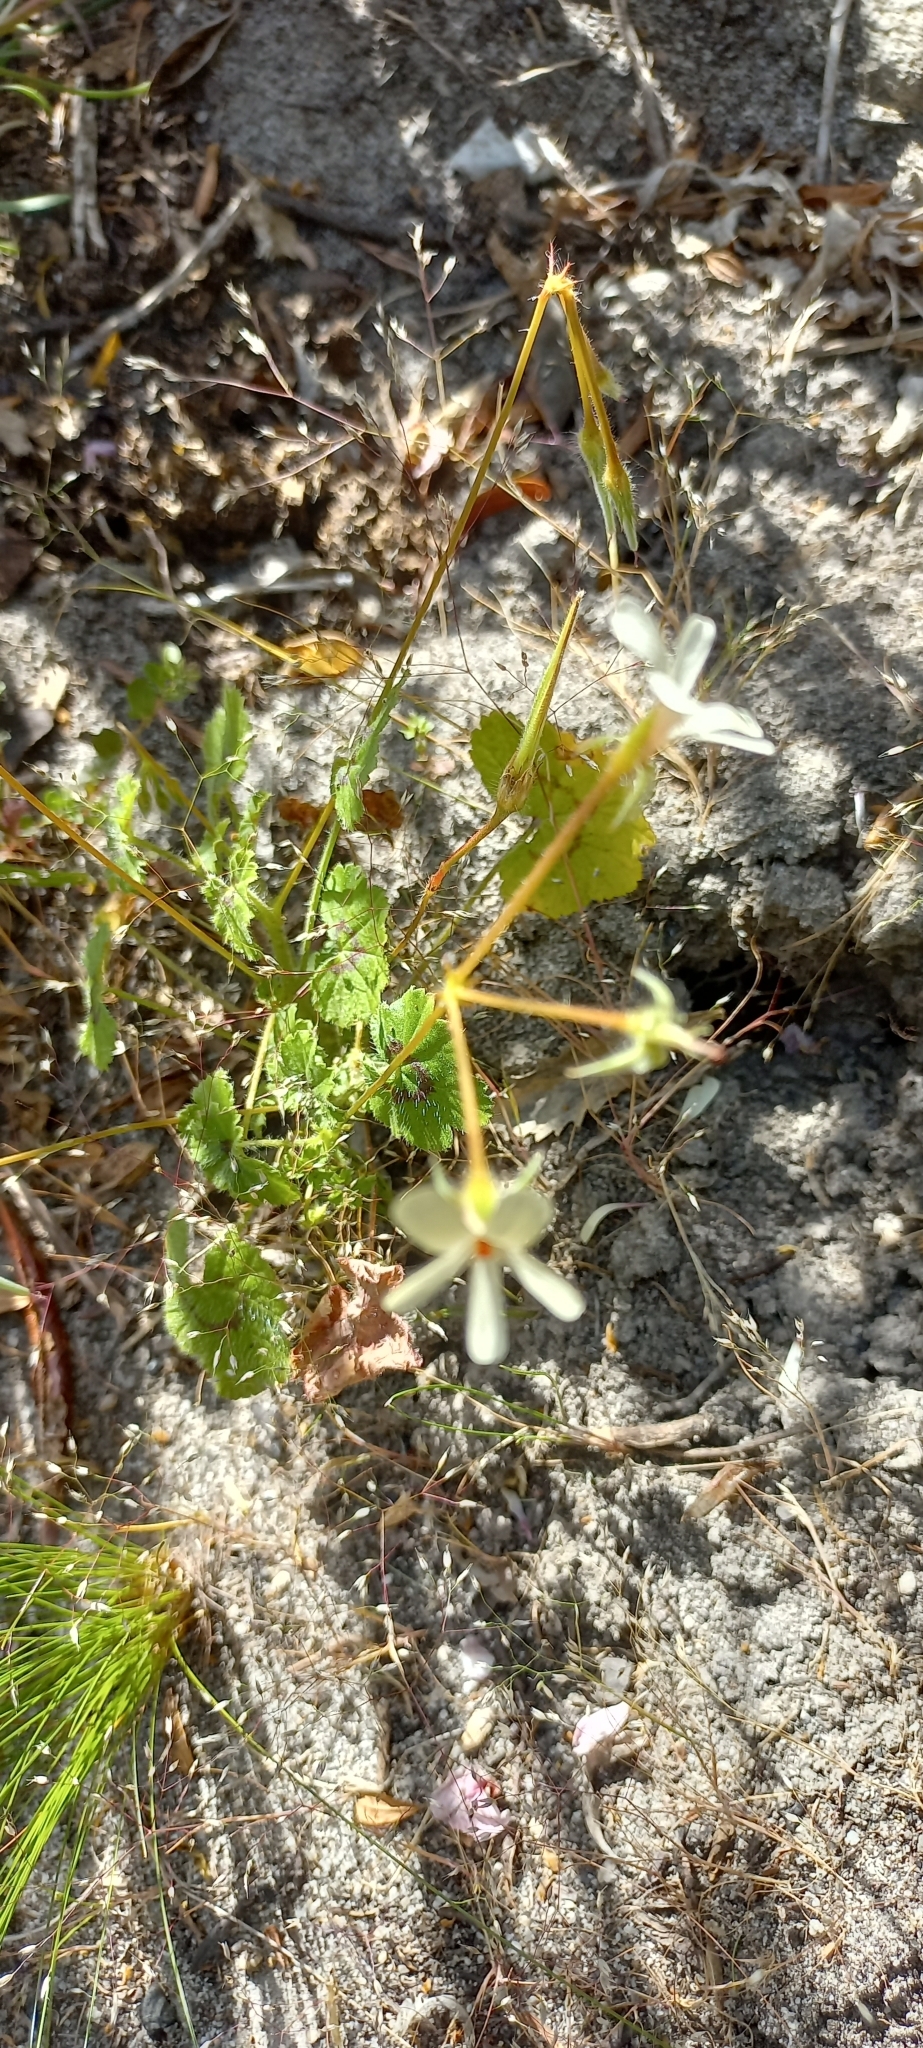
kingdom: Plantae
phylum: Tracheophyta
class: Magnoliopsida
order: Geraniales
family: Geraniaceae
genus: Pelargonium
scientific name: Pelargonium elongatum
